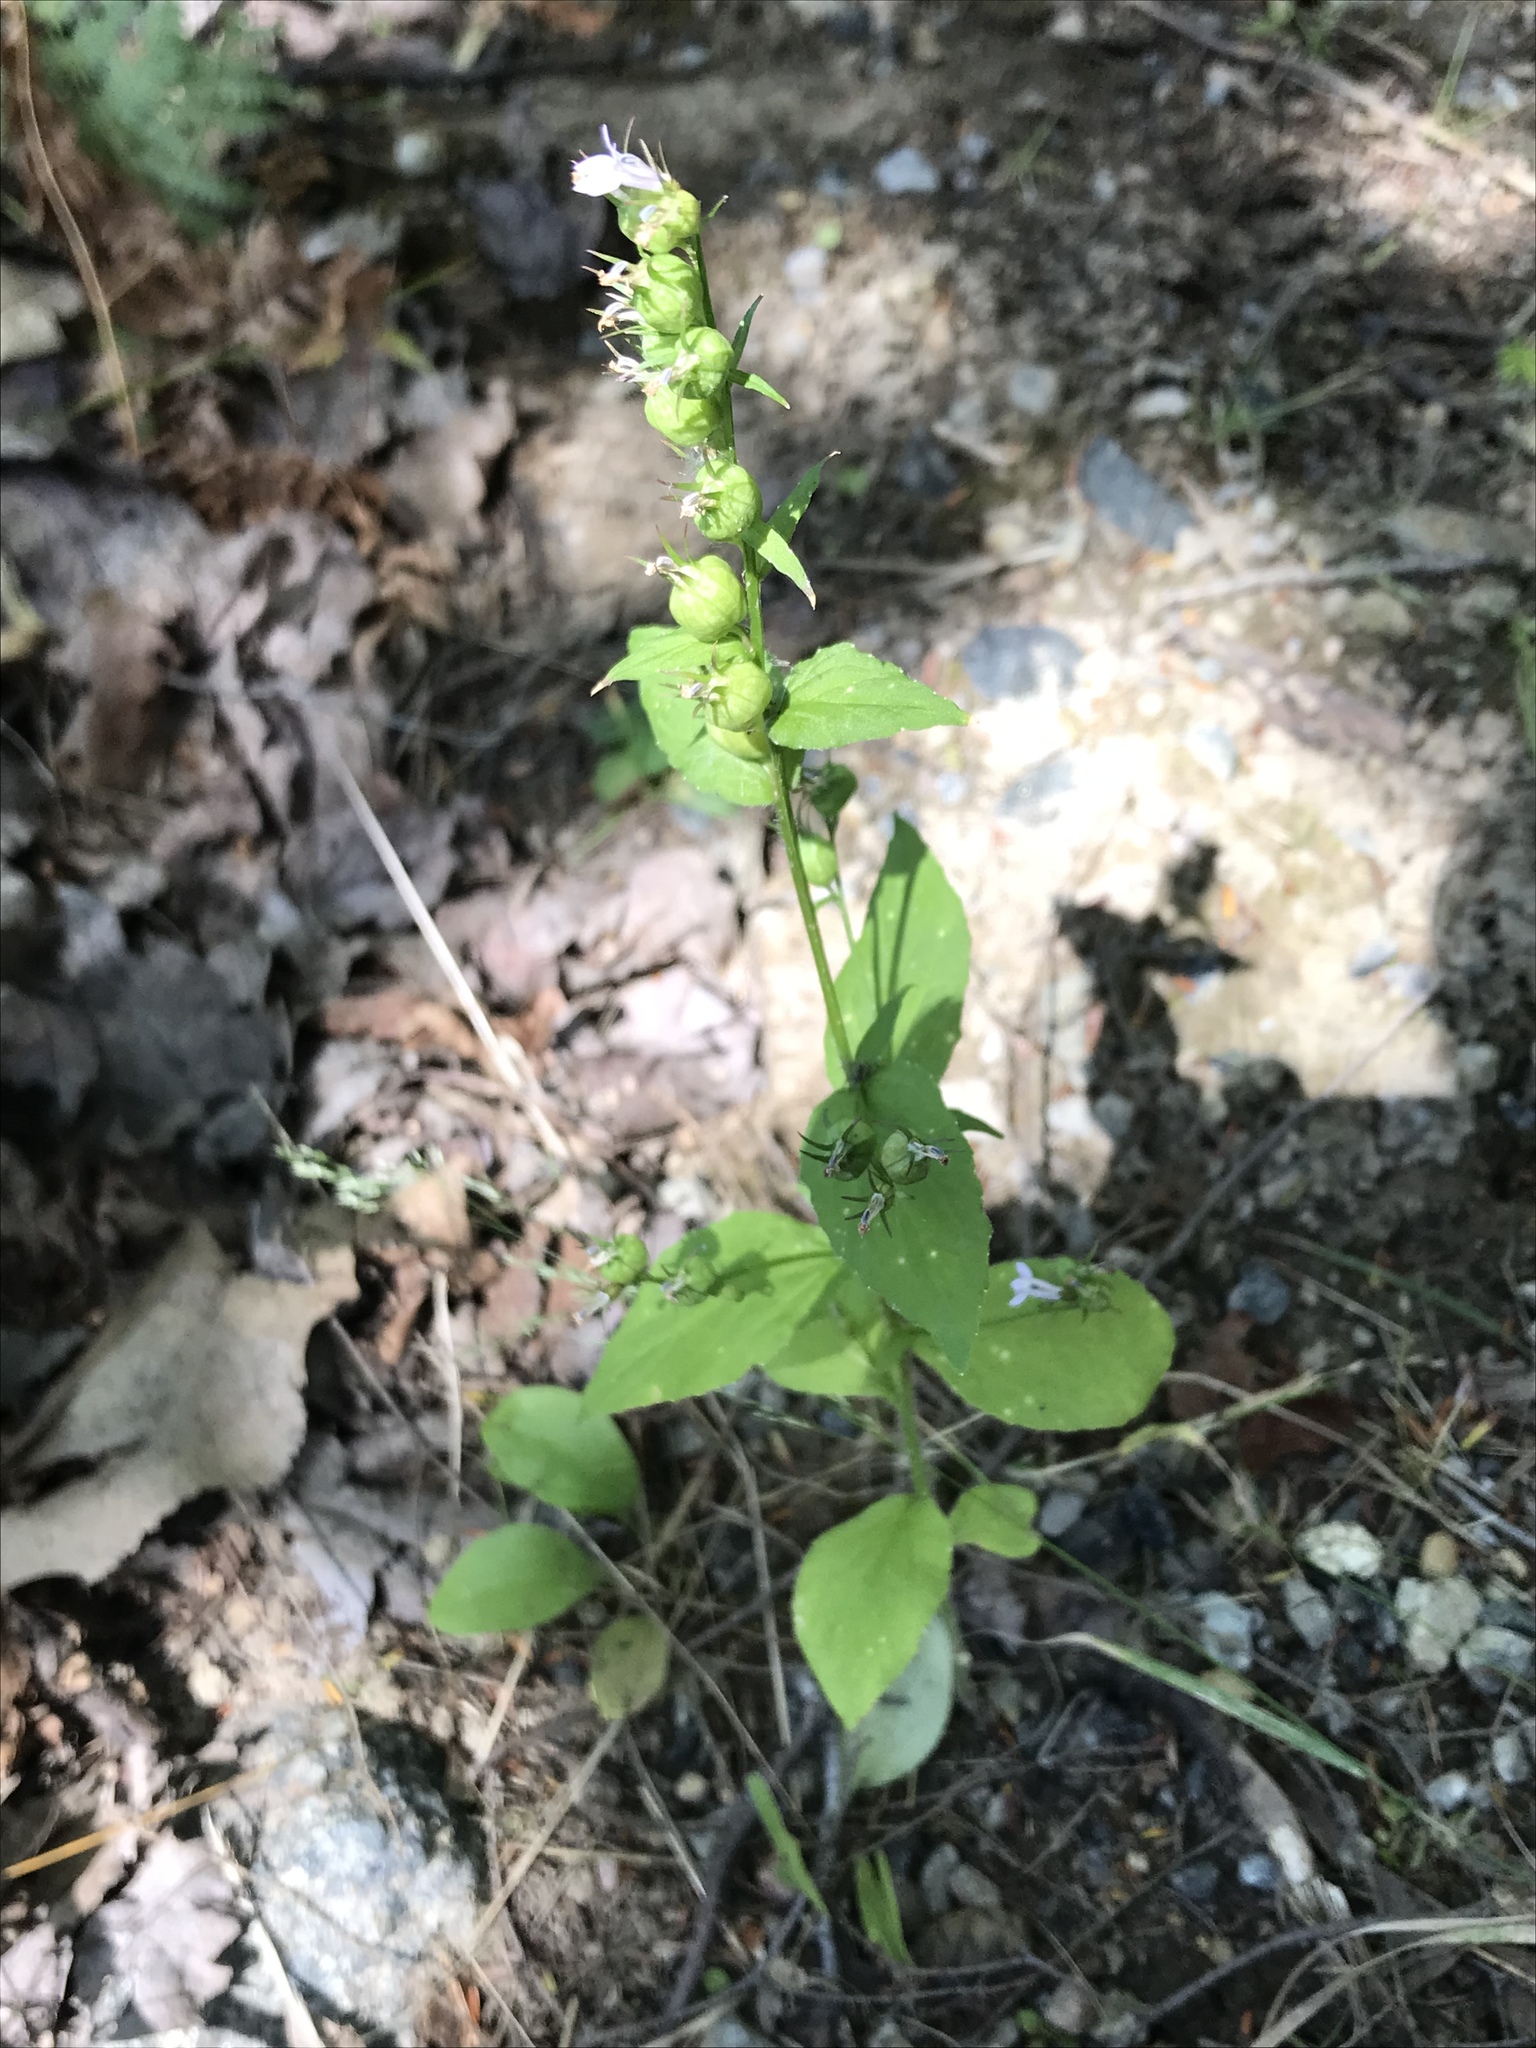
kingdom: Plantae
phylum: Tracheophyta
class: Magnoliopsida
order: Asterales
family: Campanulaceae
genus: Lobelia
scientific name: Lobelia inflata
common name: Indian tobacco
